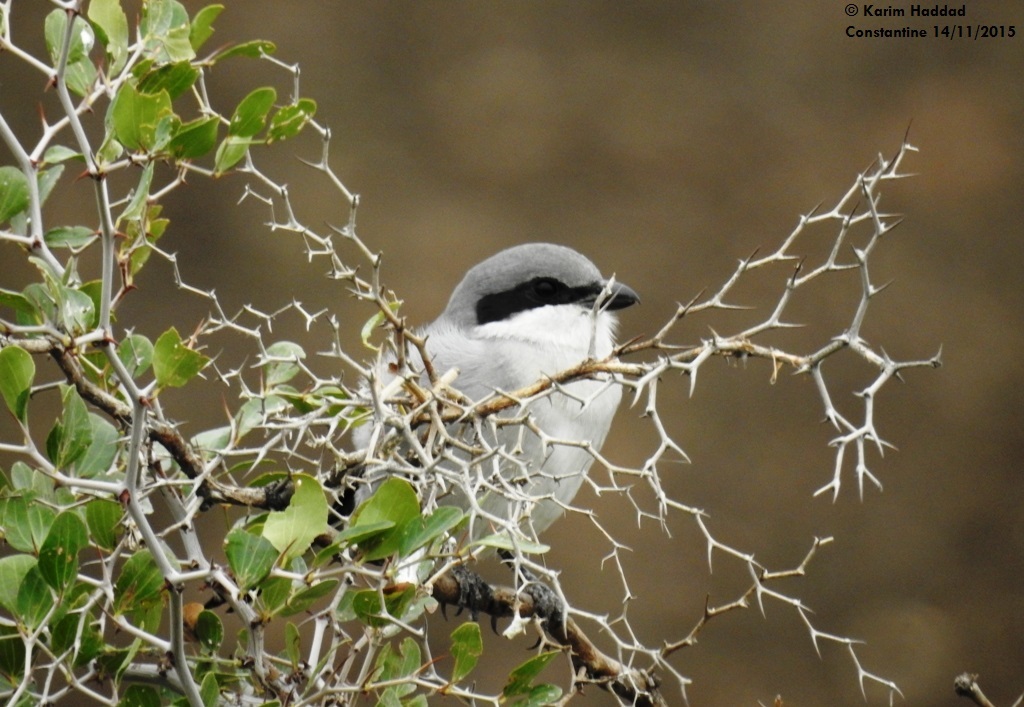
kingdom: Animalia
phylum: Chordata
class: Aves
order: Passeriformes
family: Laniidae
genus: Lanius
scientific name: Lanius excubitor
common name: Great grey shrike
